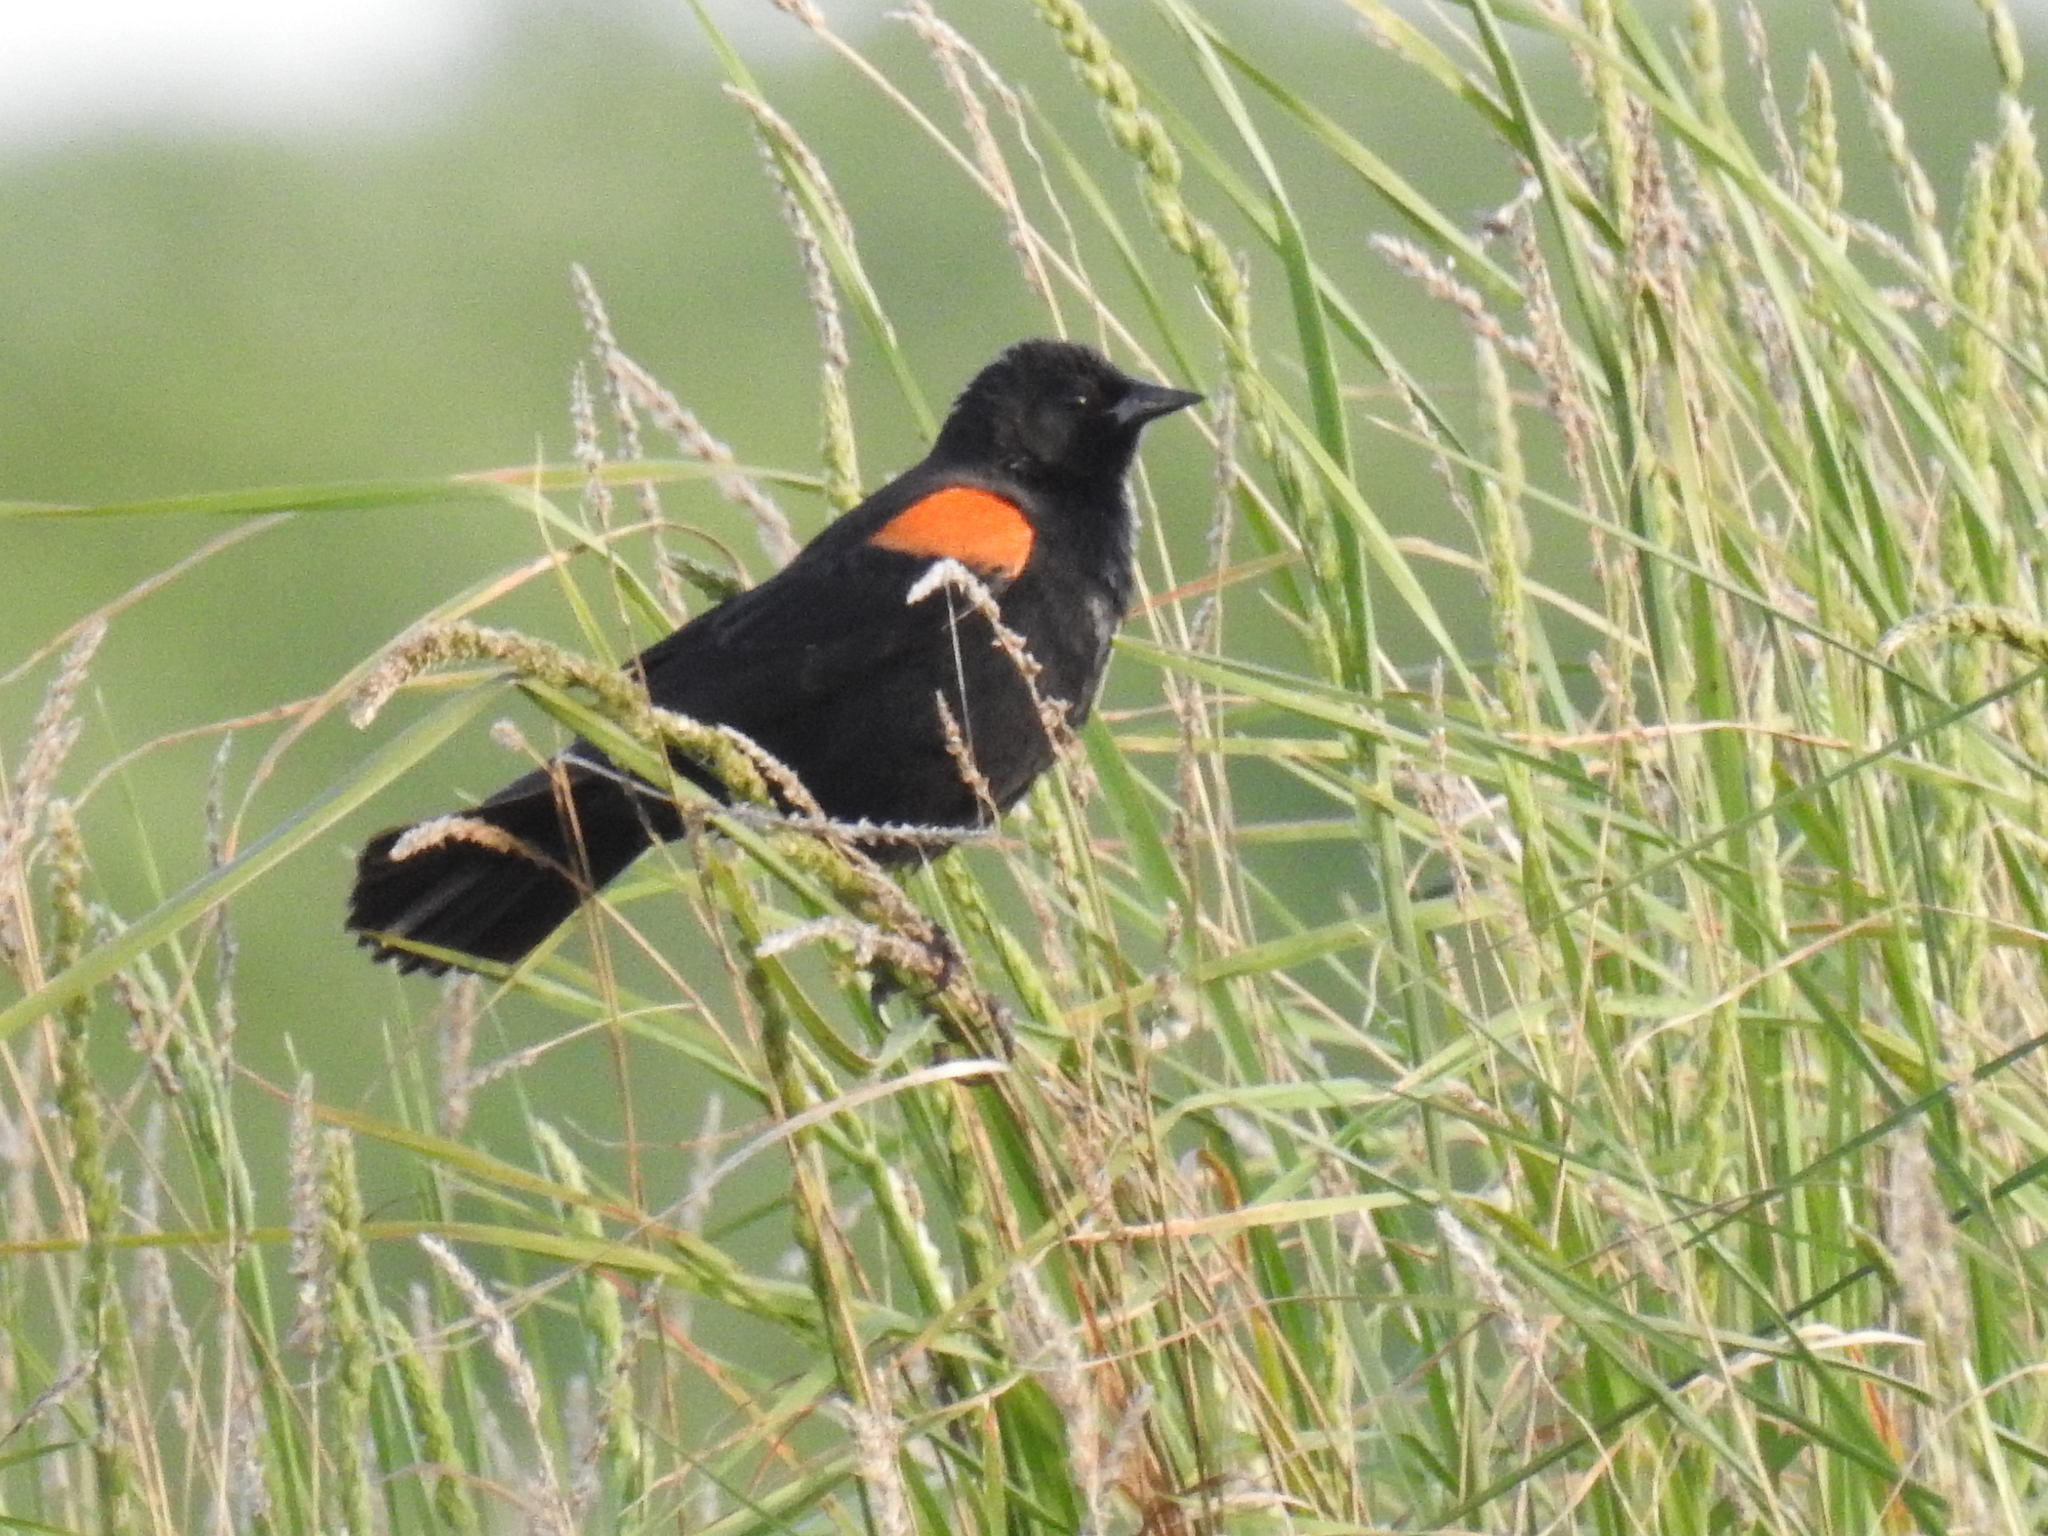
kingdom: Animalia
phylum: Chordata
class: Aves
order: Passeriformes
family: Icteridae
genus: Agelaius
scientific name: Agelaius phoeniceus
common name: Red-winged blackbird
